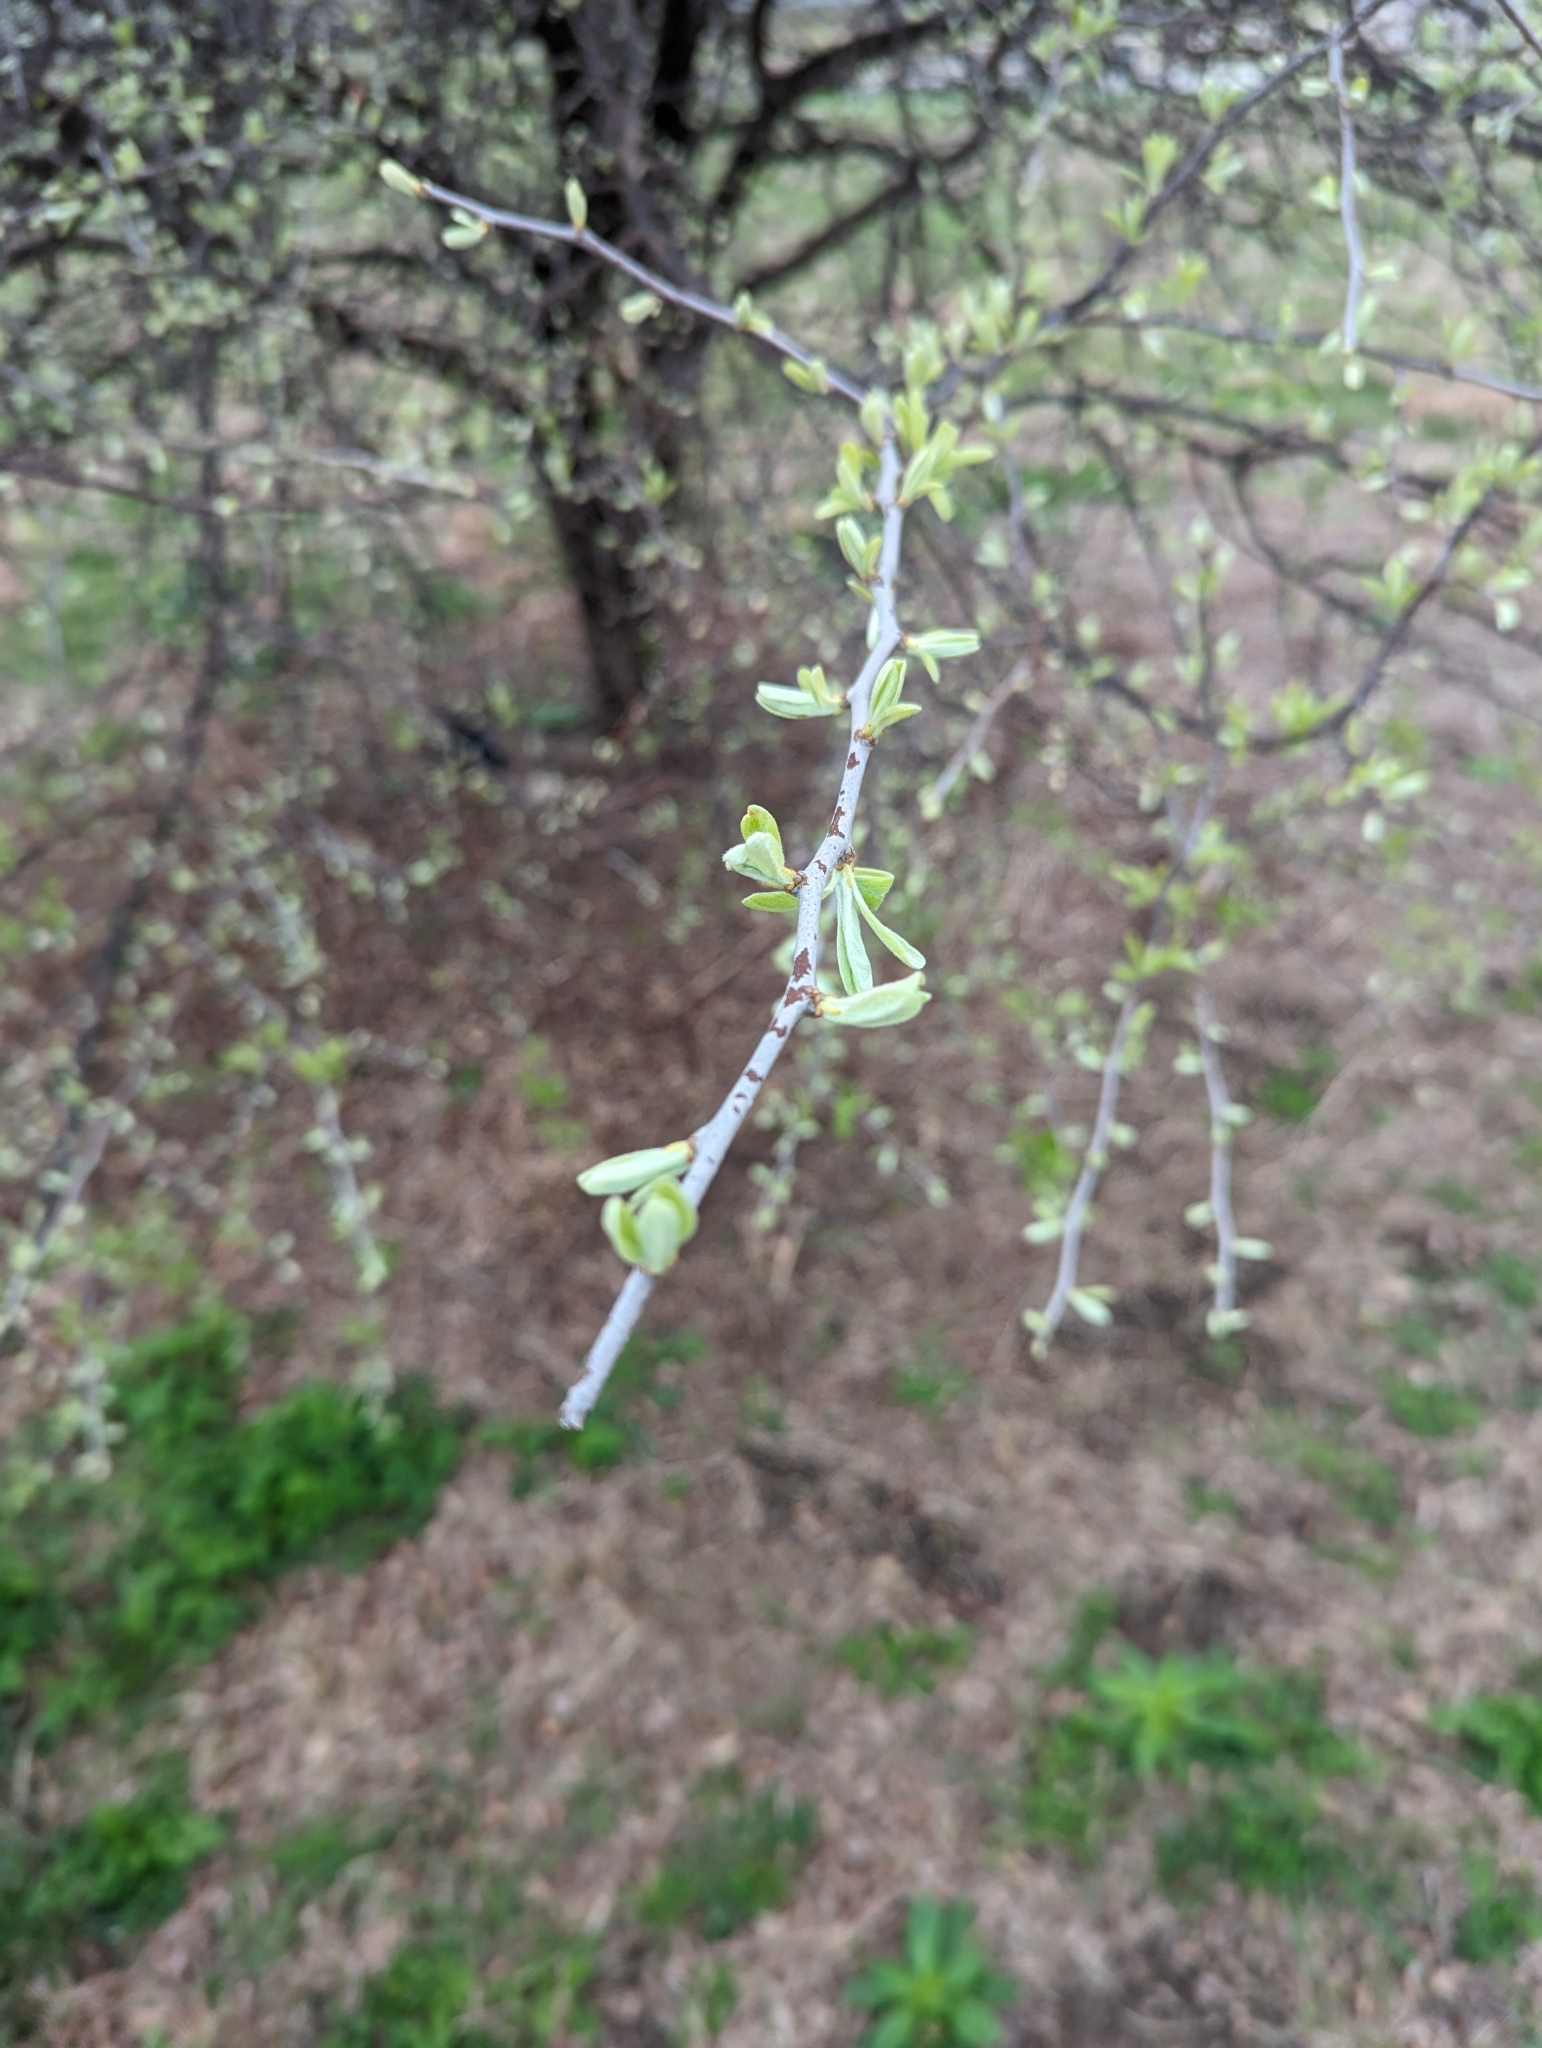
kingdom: Plantae
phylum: Tracheophyta
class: Magnoliopsida
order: Ericales
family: Sapotaceae
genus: Sideroxylon
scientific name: Sideroxylon lanuginosum
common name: Chittamwood
